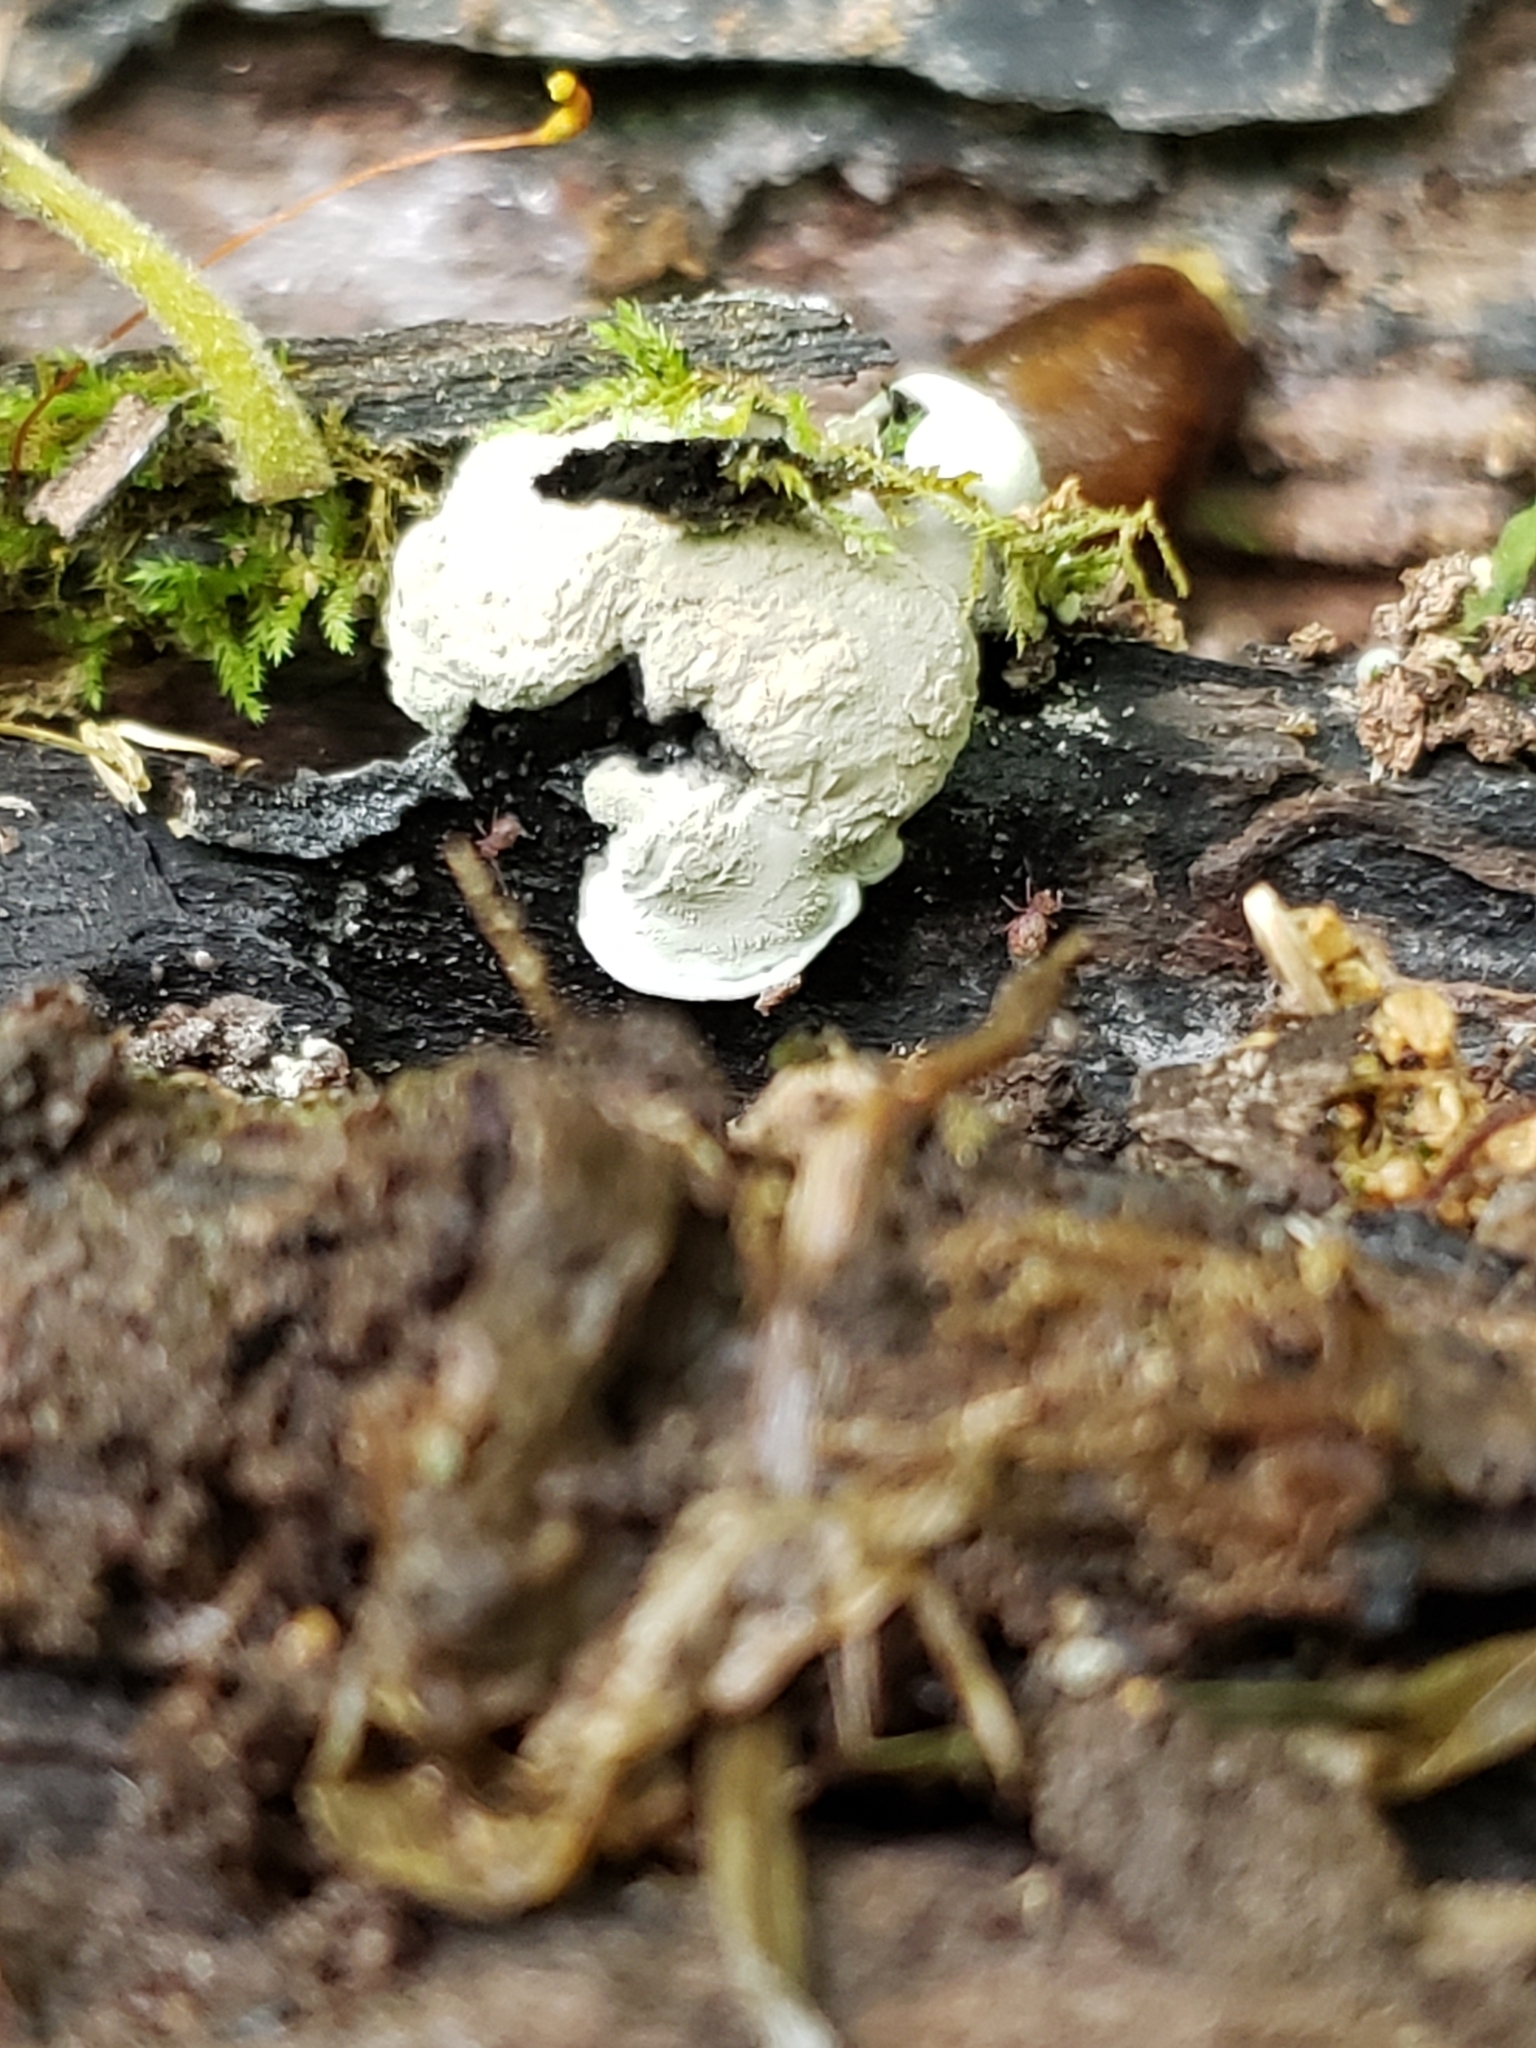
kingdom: Fungi
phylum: Ascomycota
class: Sordariomycetes
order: Xylariales
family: Xylariaceae
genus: Kretzschmaria
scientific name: Kretzschmaria deusta
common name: Brittle cinder
